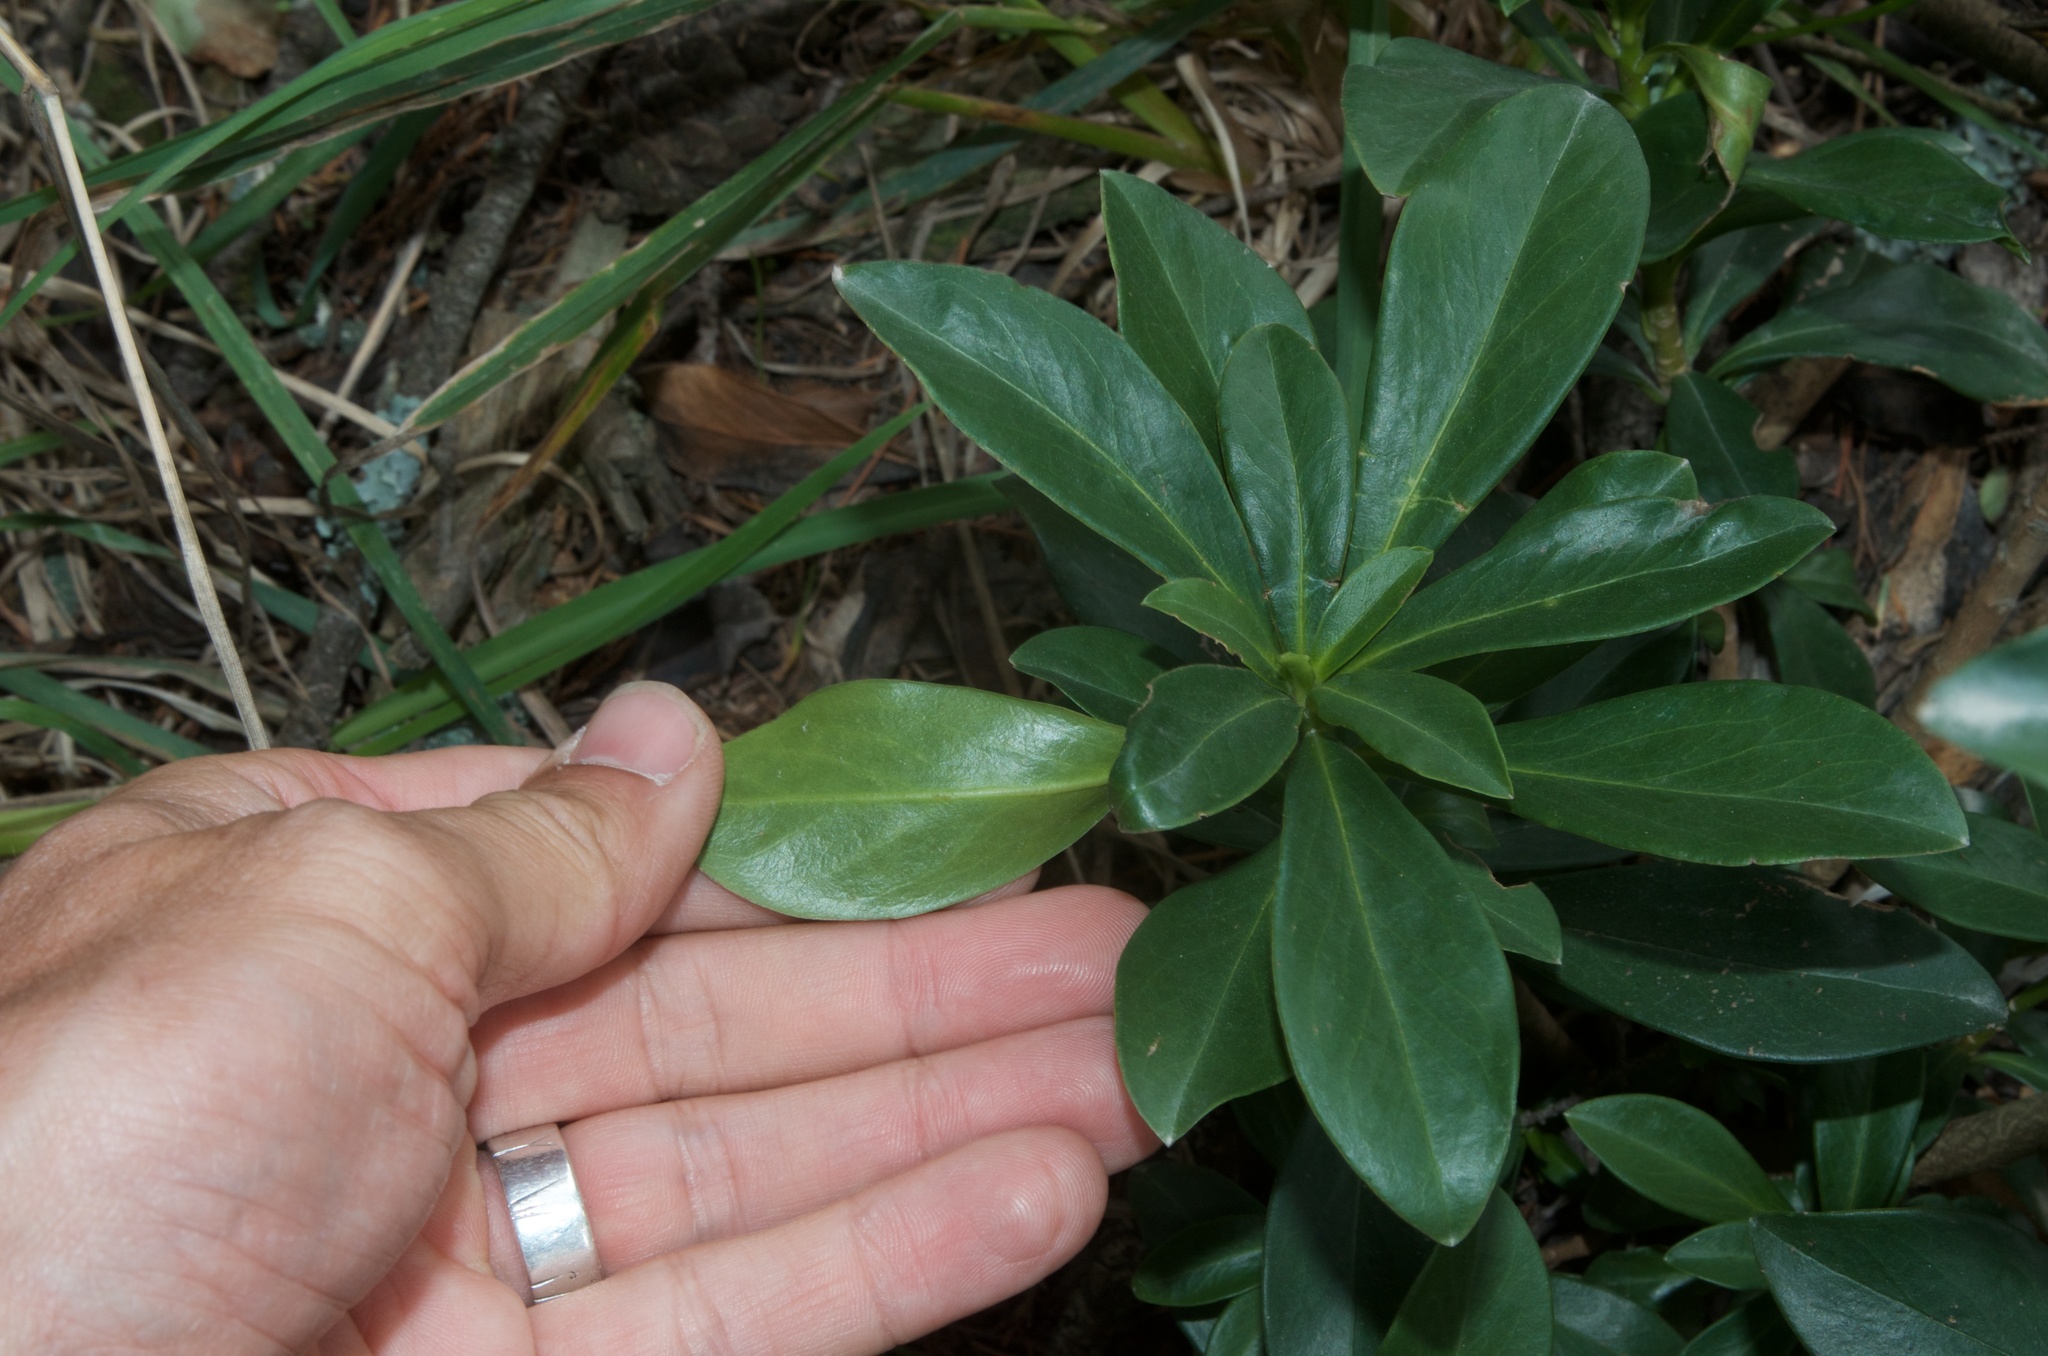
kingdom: Plantae
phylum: Tracheophyta
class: Magnoliopsida
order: Malvales
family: Thymelaeaceae
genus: Daphne
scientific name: Daphne laureola
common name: Spurge-laurel
